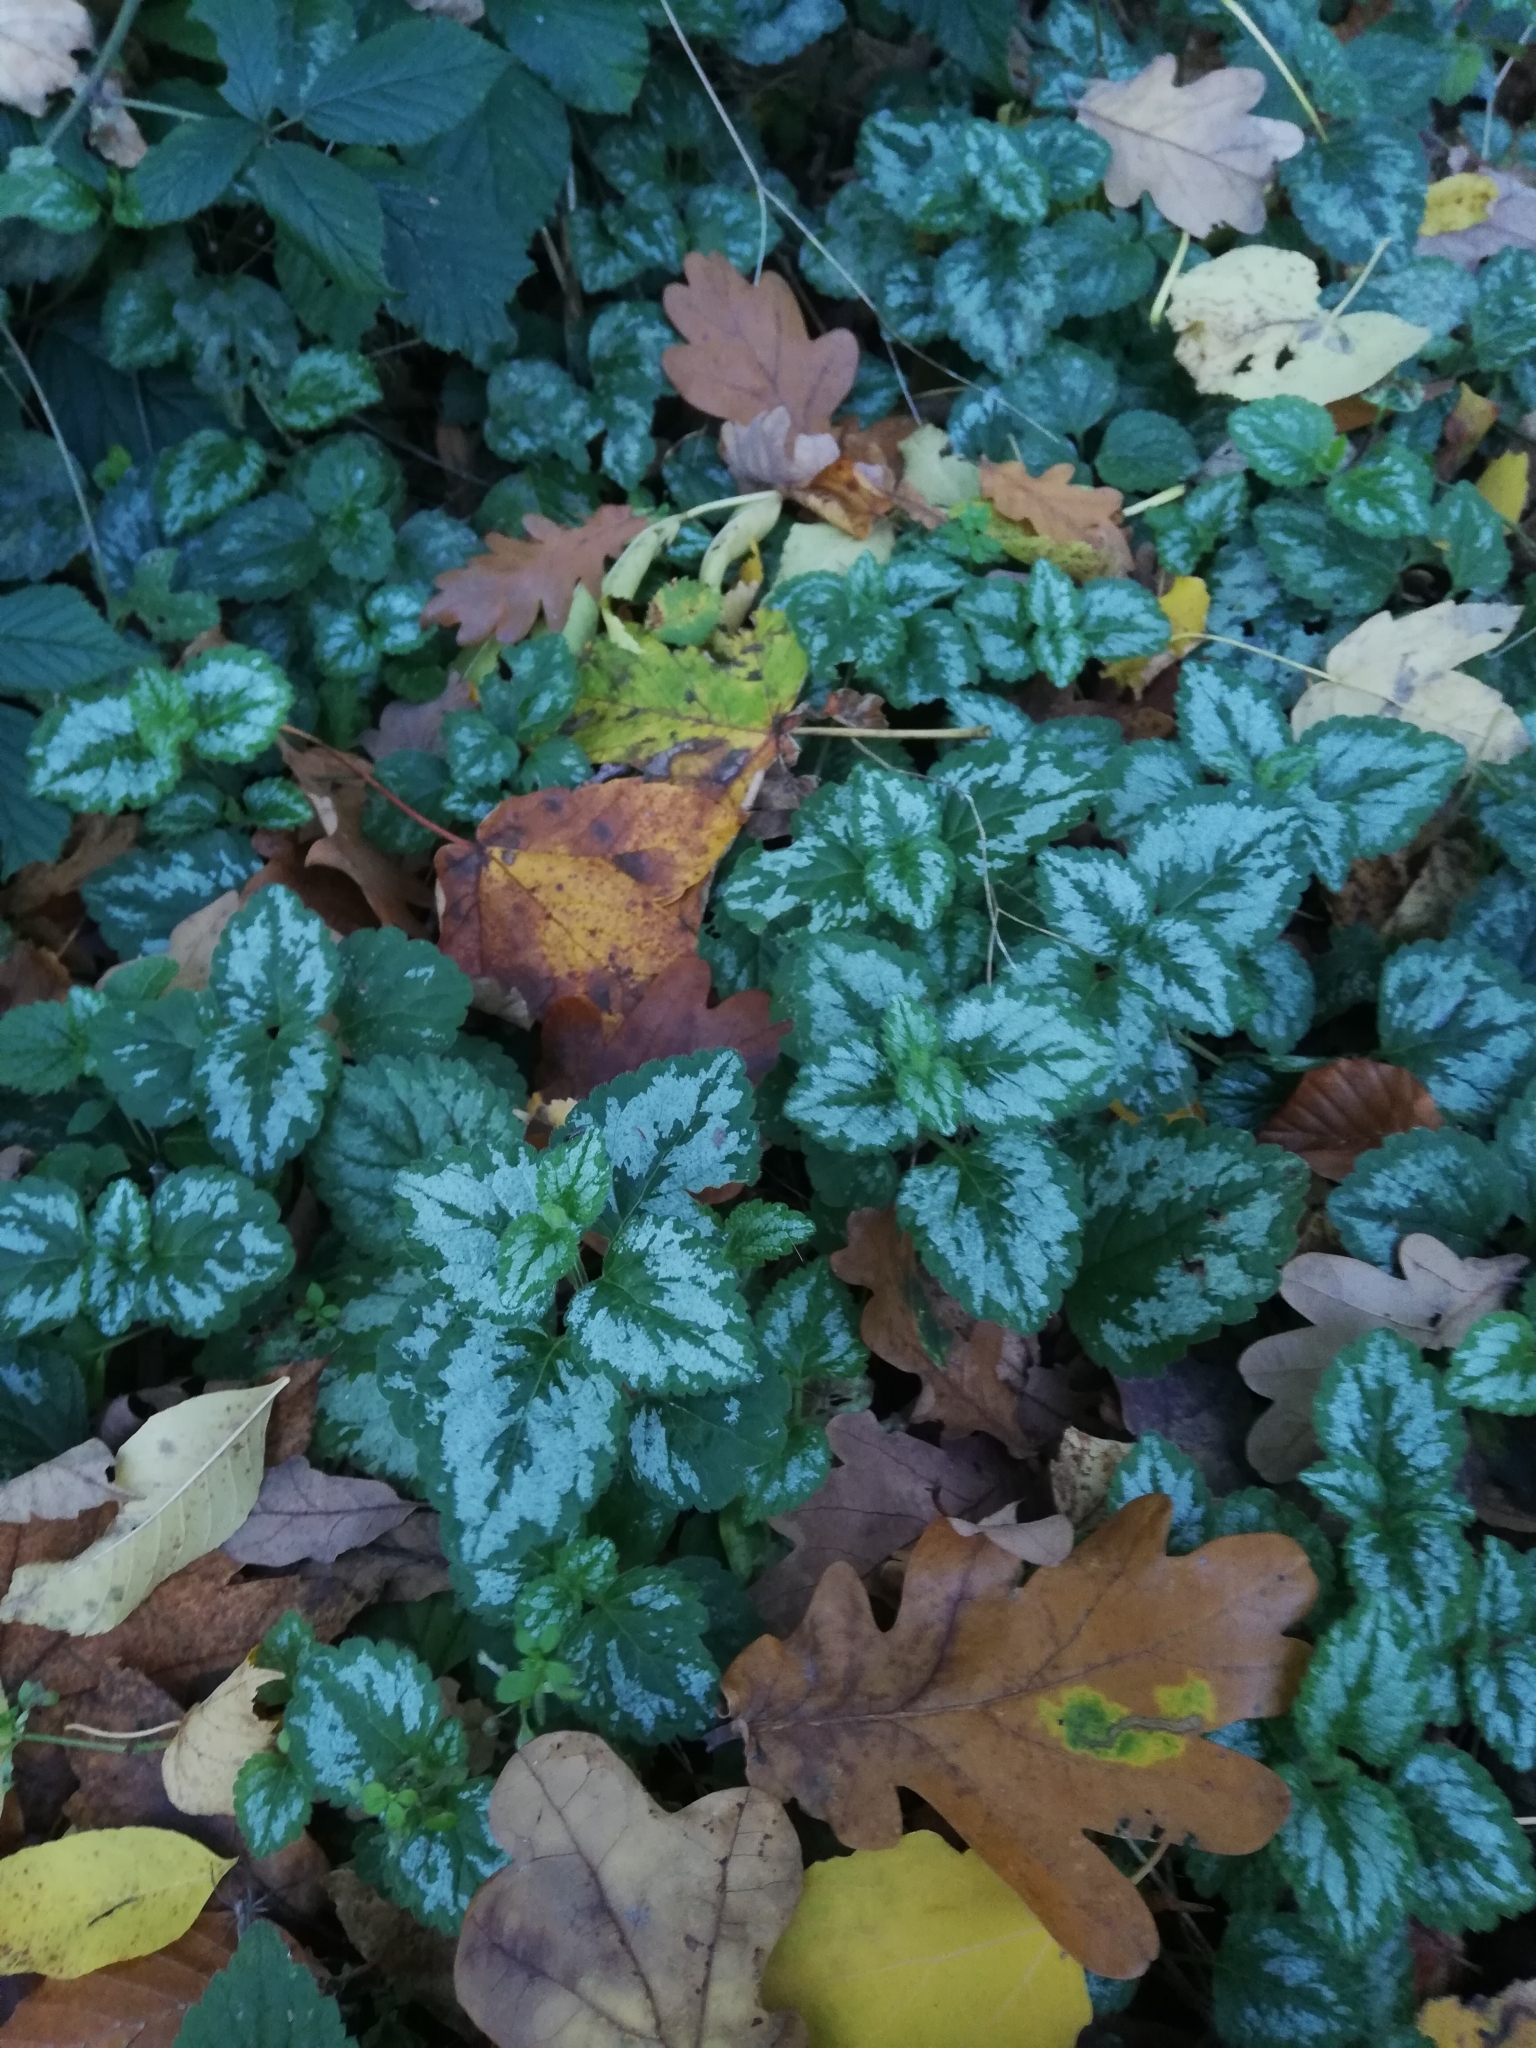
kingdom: Plantae
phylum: Tracheophyta
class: Magnoliopsida
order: Lamiales
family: Lamiaceae
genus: Lamium
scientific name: Lamium galeobdolon
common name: Yellow archangel
